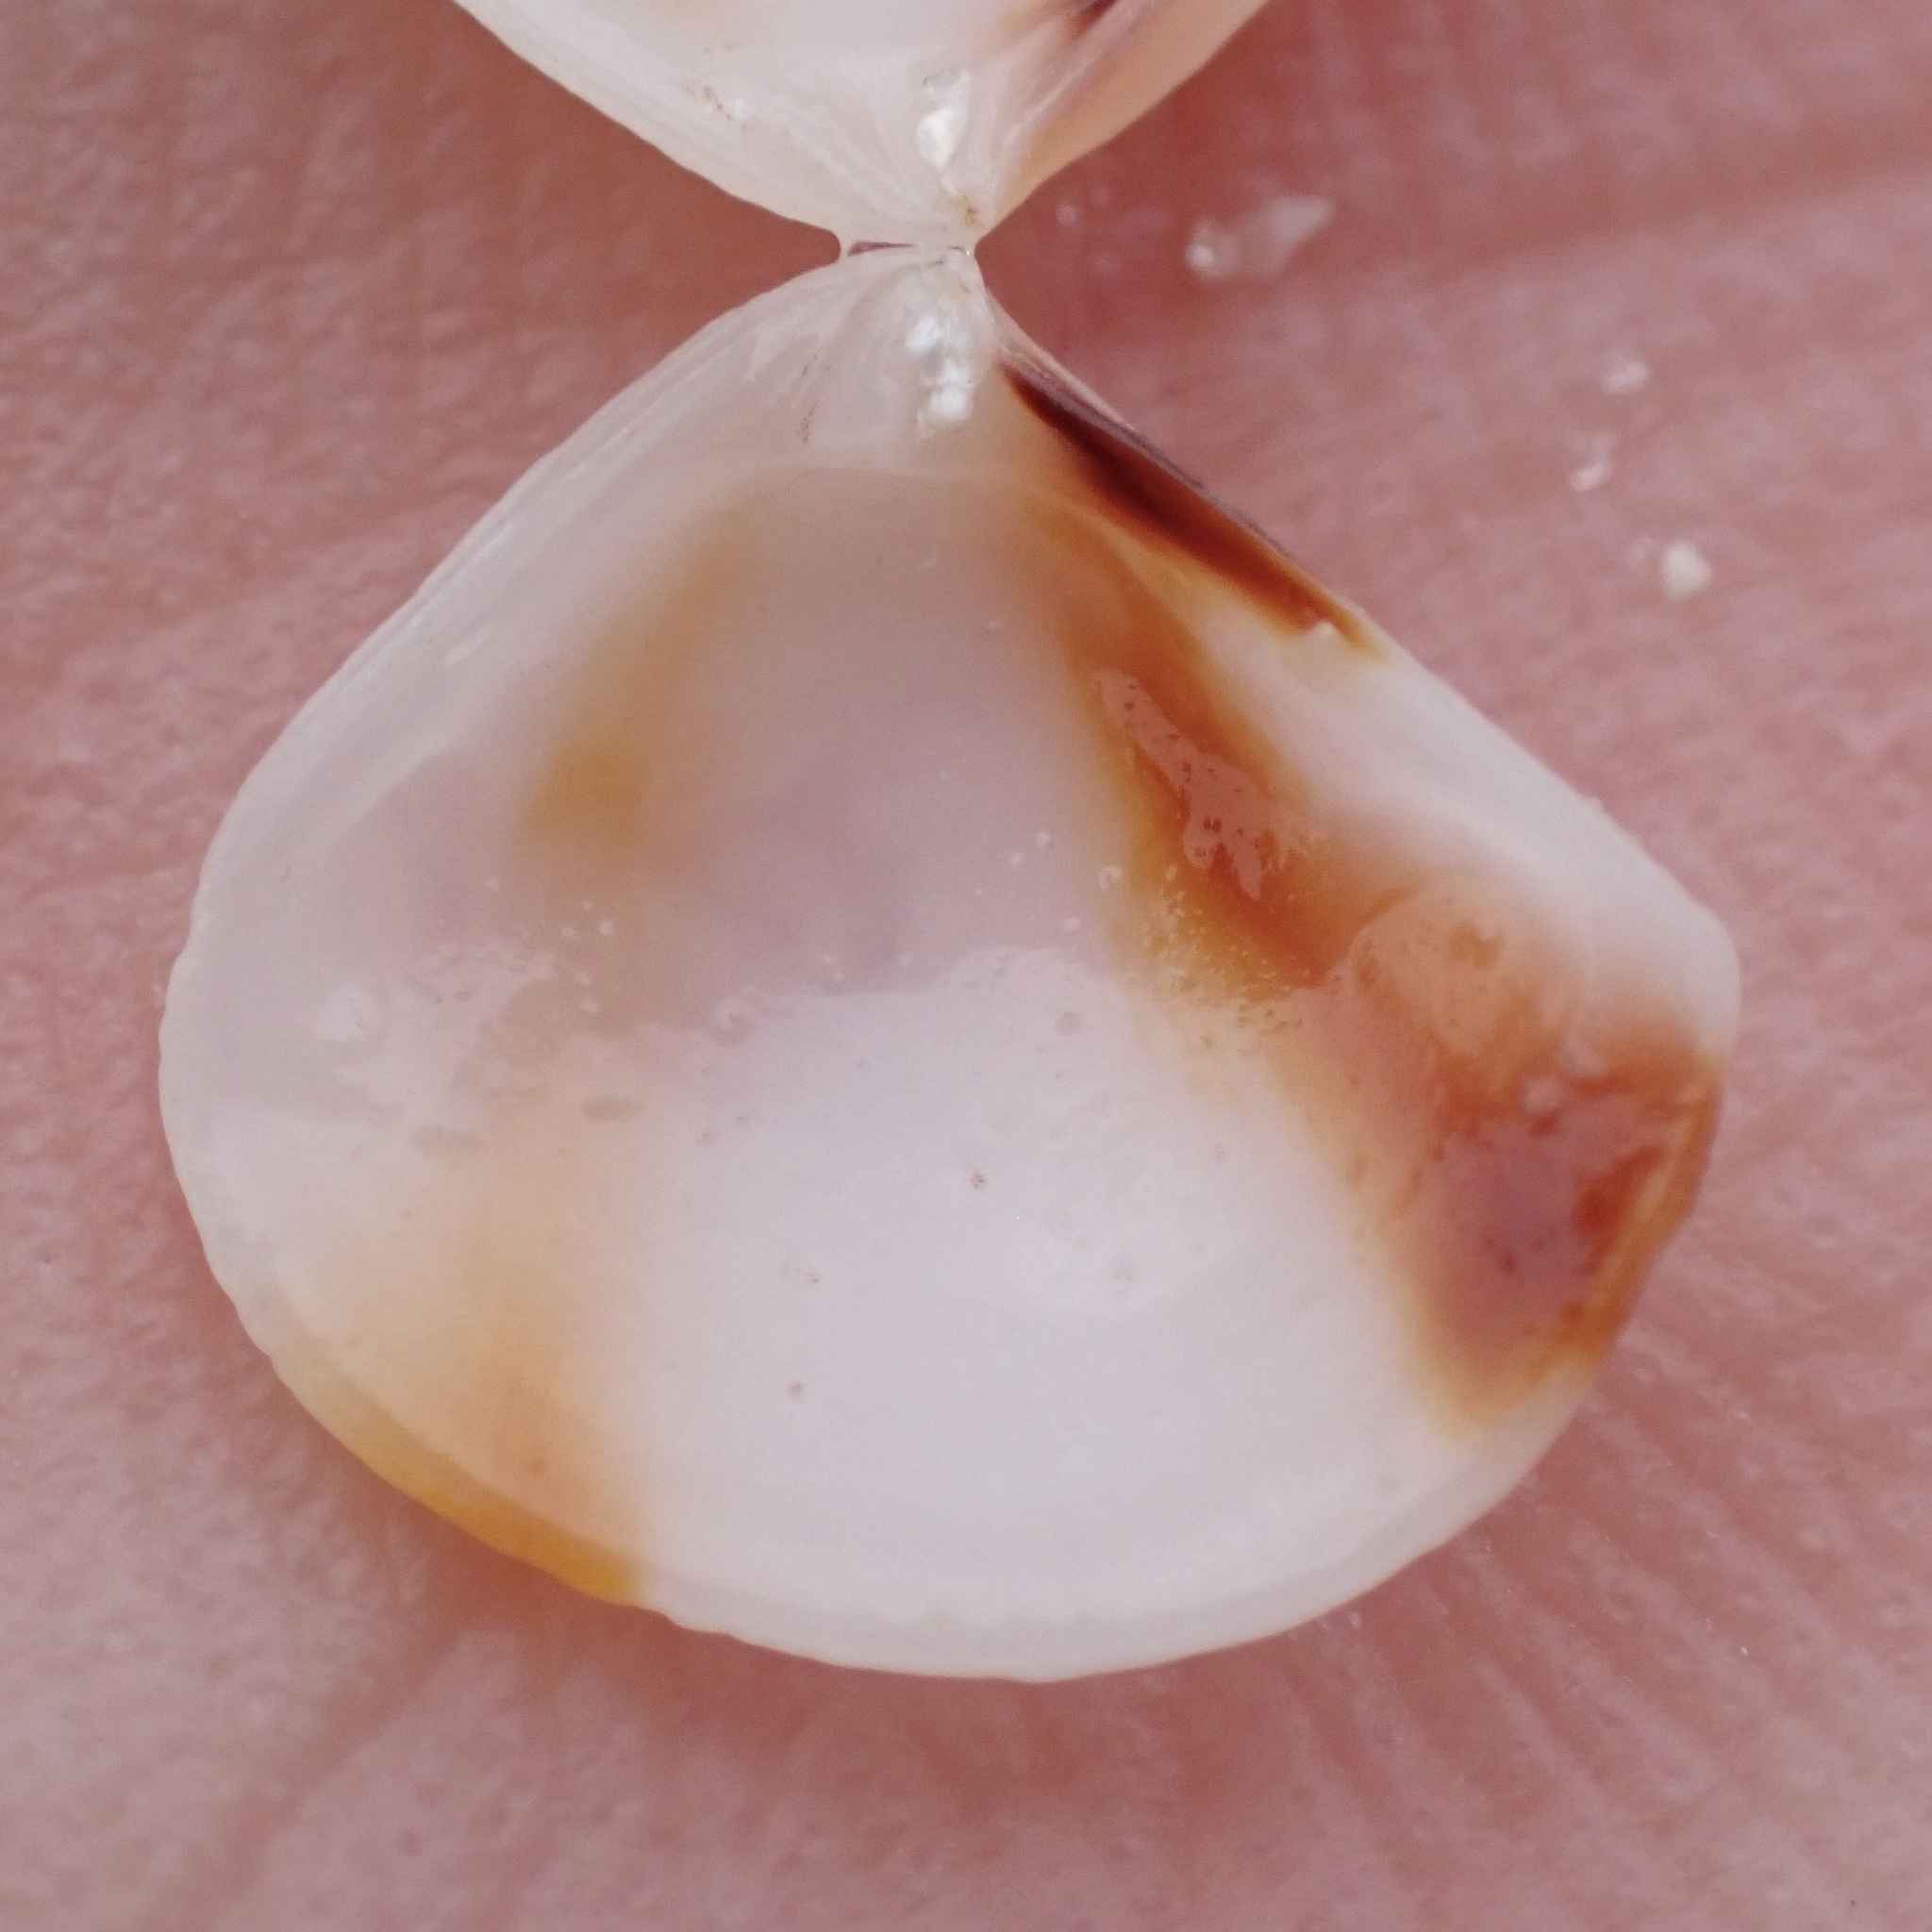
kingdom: Animalia
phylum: Mollusca
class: Bivalvia
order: Carditida
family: Crassatellidae
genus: Crassinella
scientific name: Crassinella lunulata
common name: Lunate crassinella
